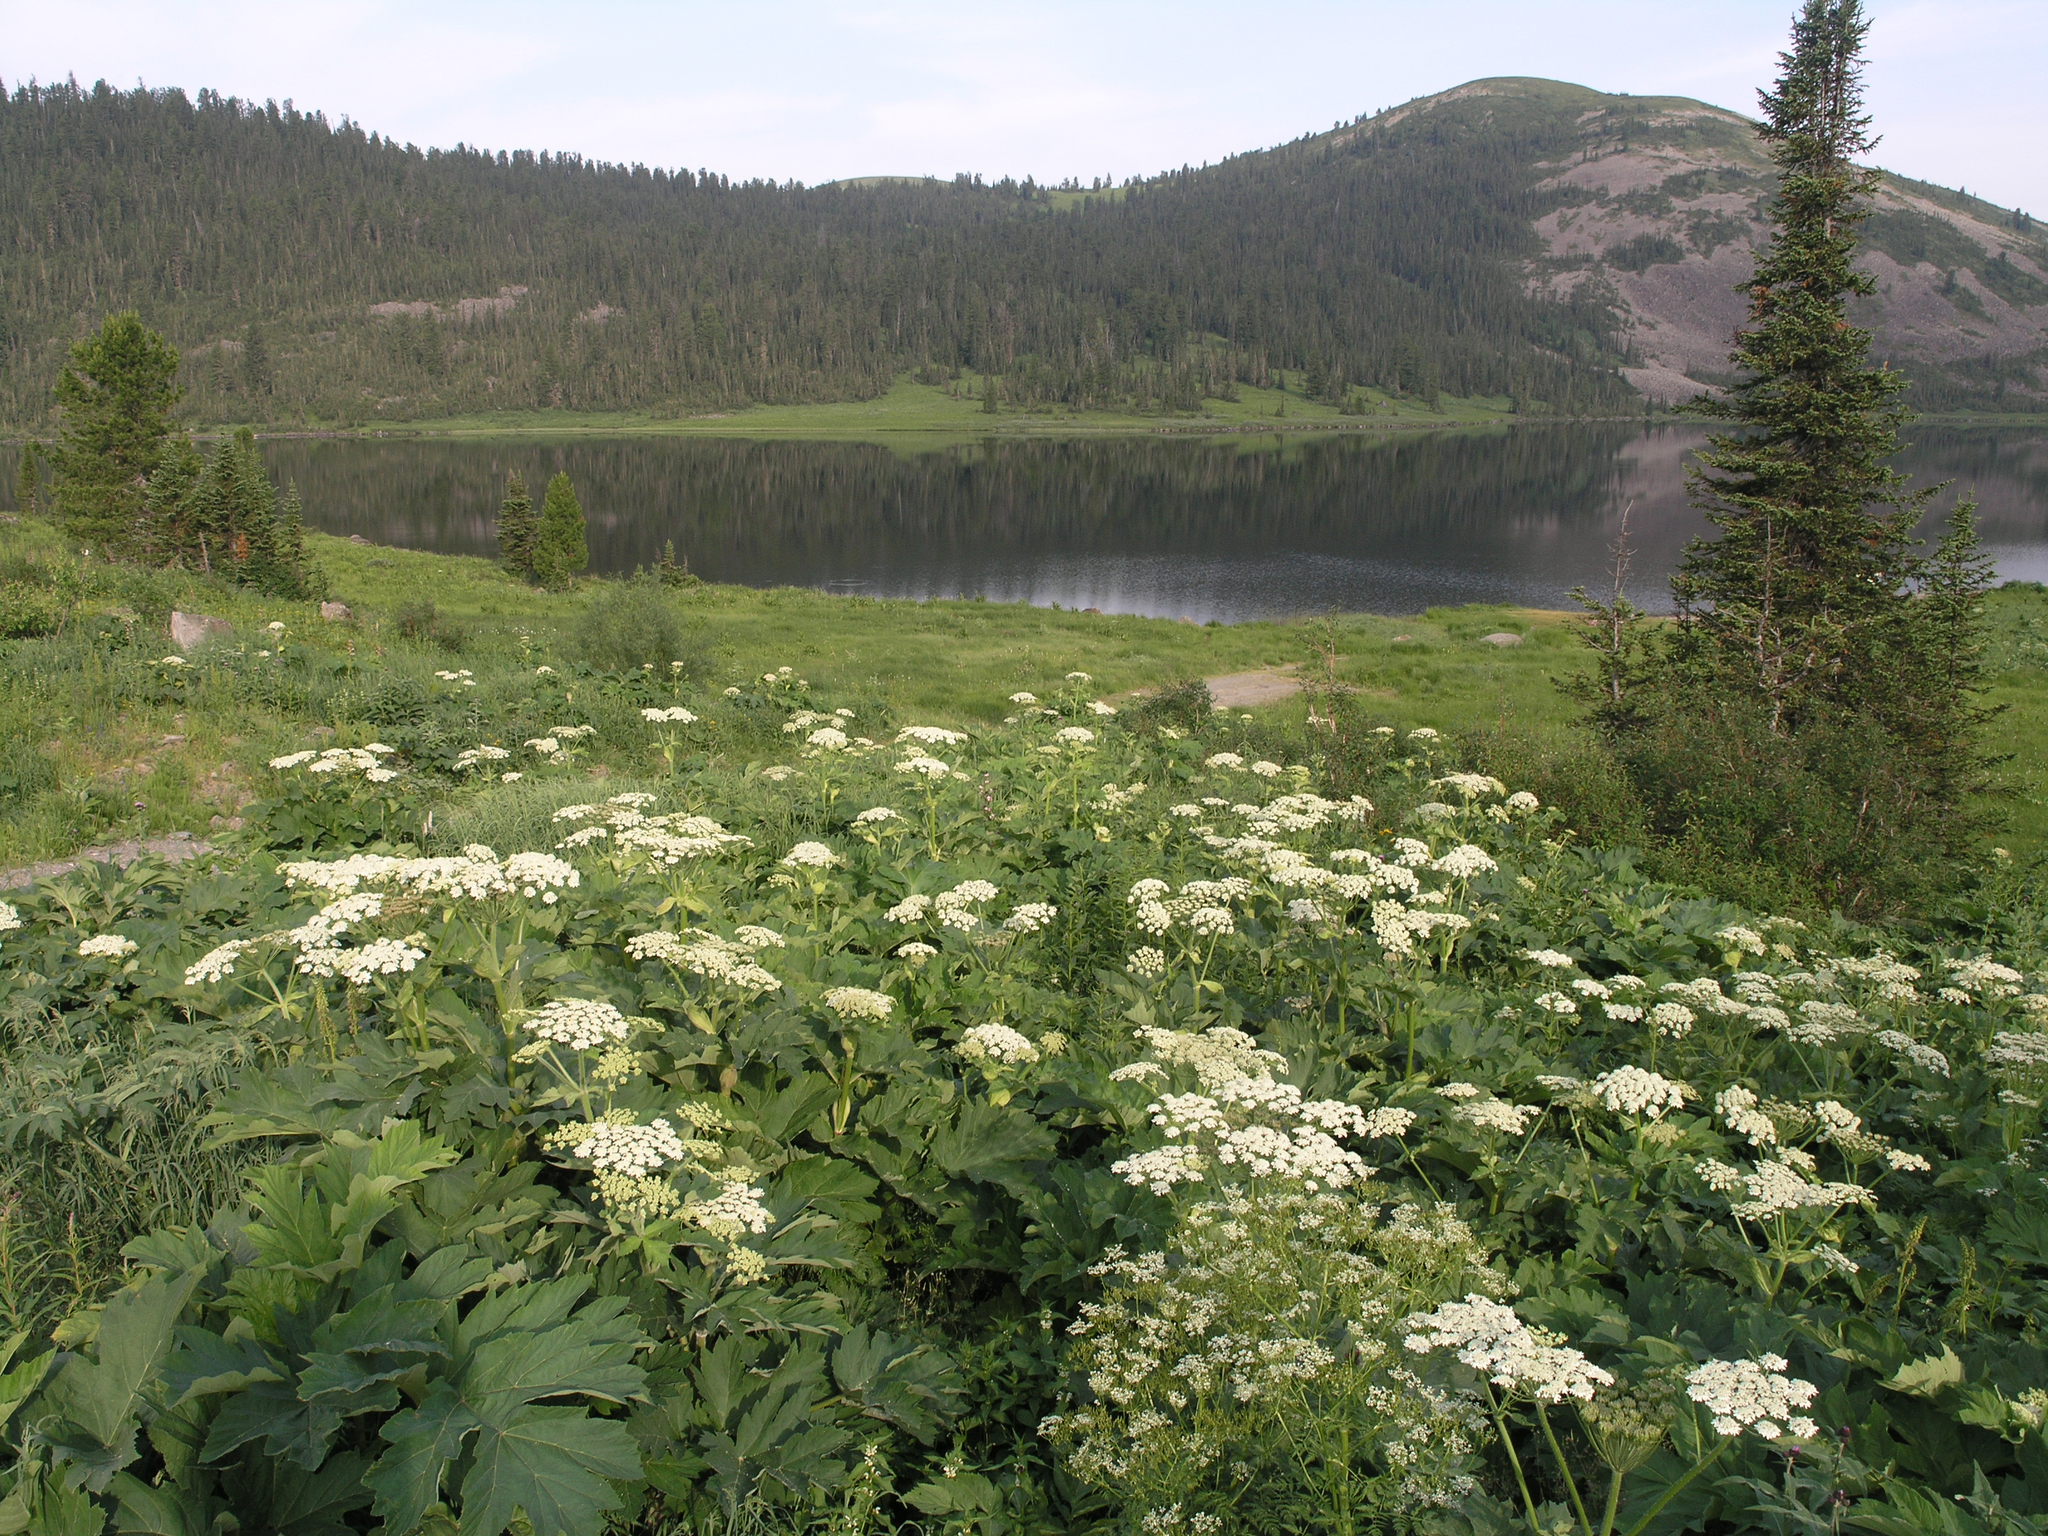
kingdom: Plantae
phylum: Tracheophyta
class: Magnoliopsida
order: Apiales
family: Apiaceae
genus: Heracleum
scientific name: Heracleum dissectum
